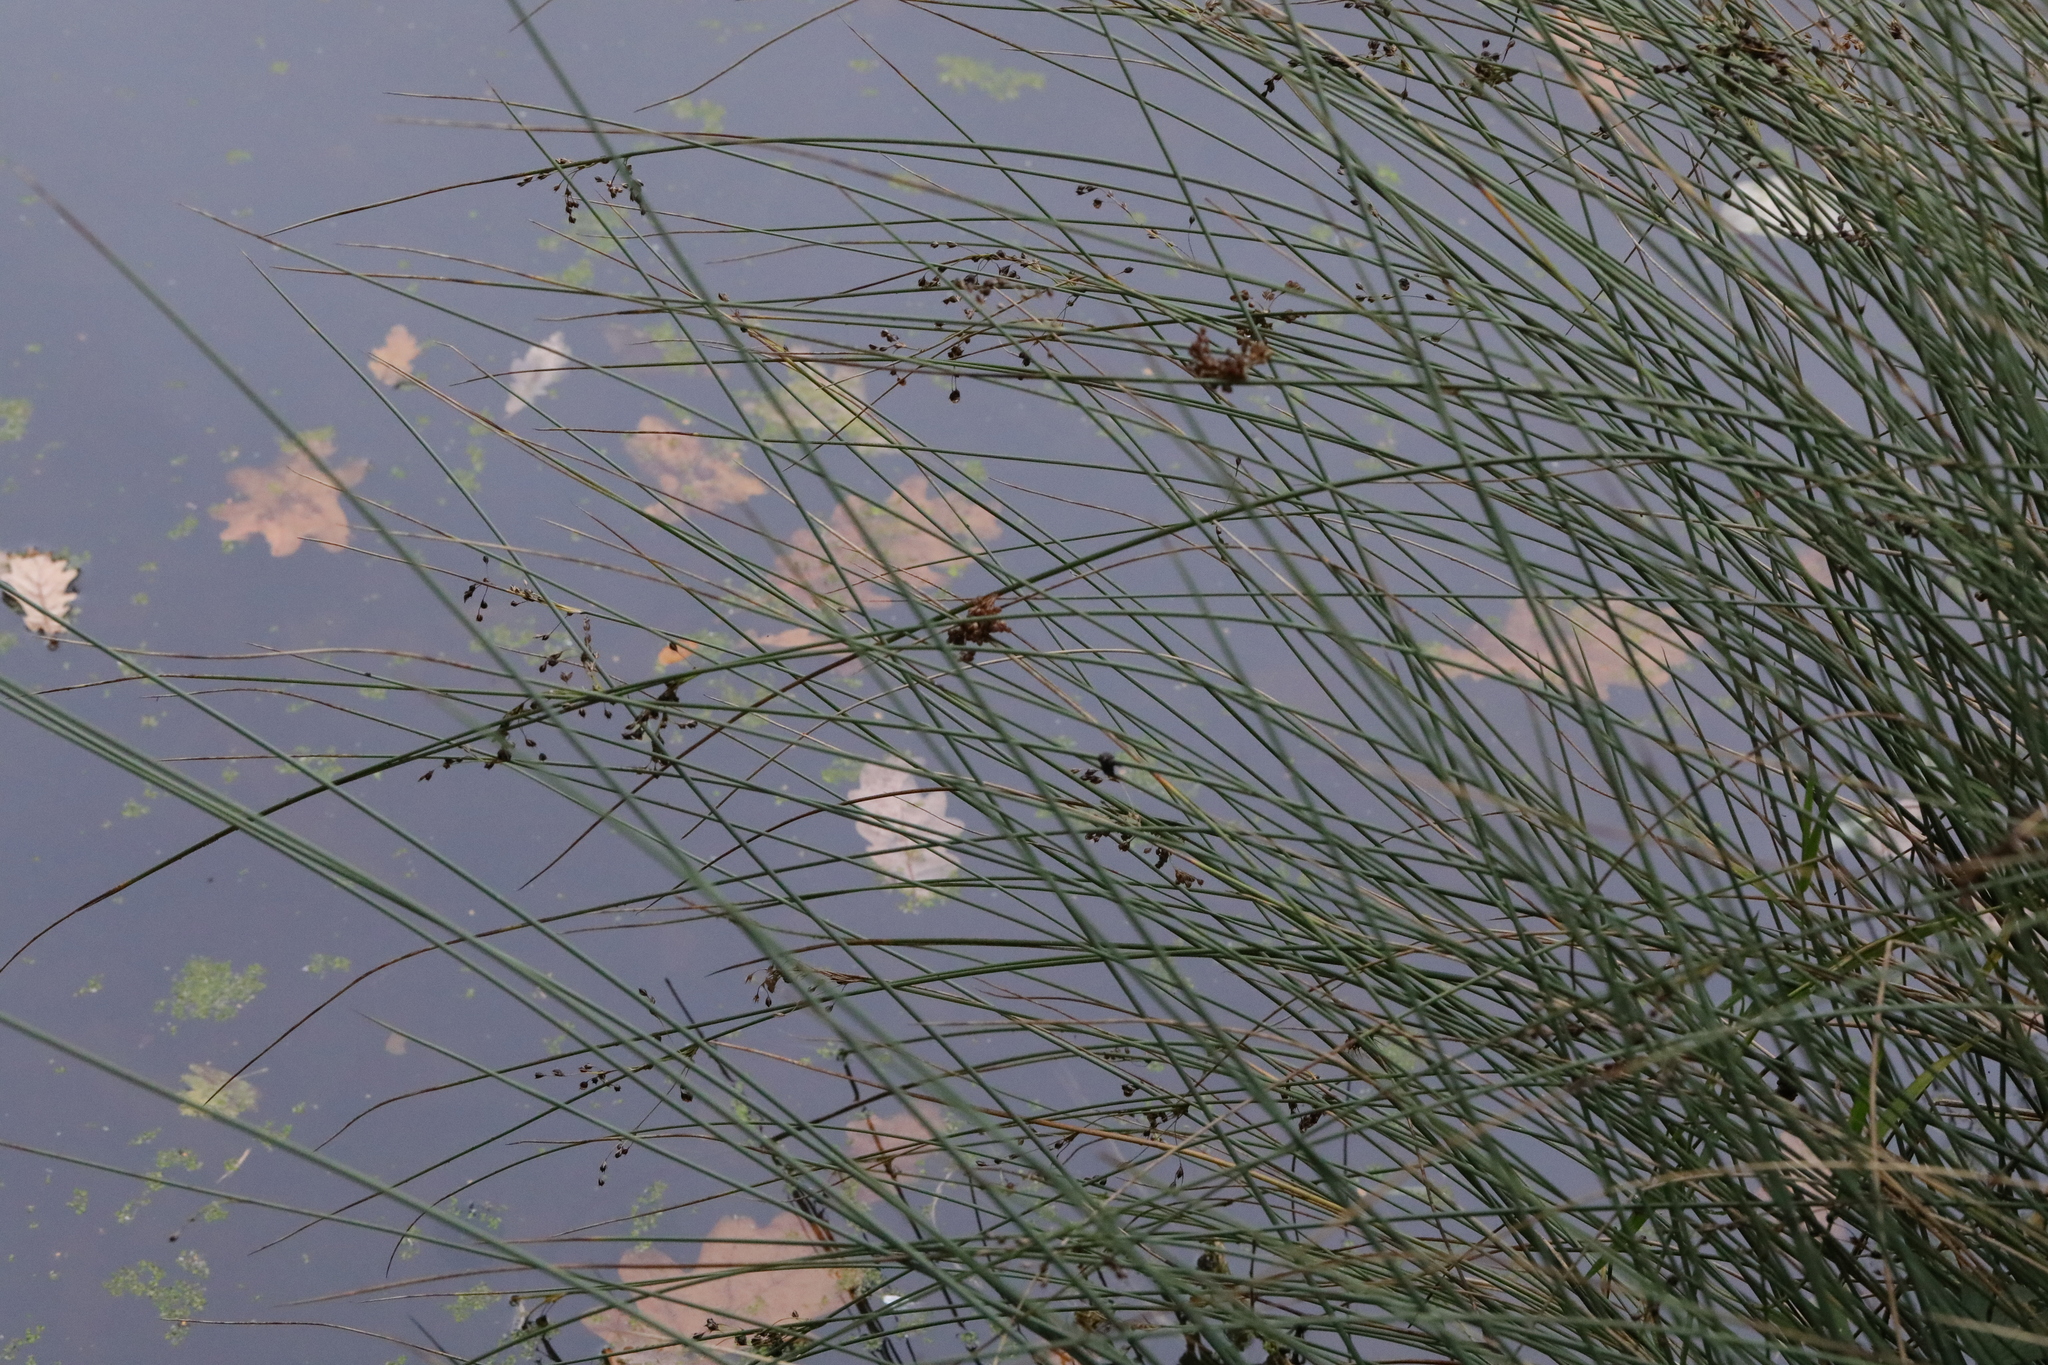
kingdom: Plantae
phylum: Tracheophyta
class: Liliopsida
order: Poales
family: Juncaceae
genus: Juncus
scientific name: Juncus inflexus
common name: Hard rush
